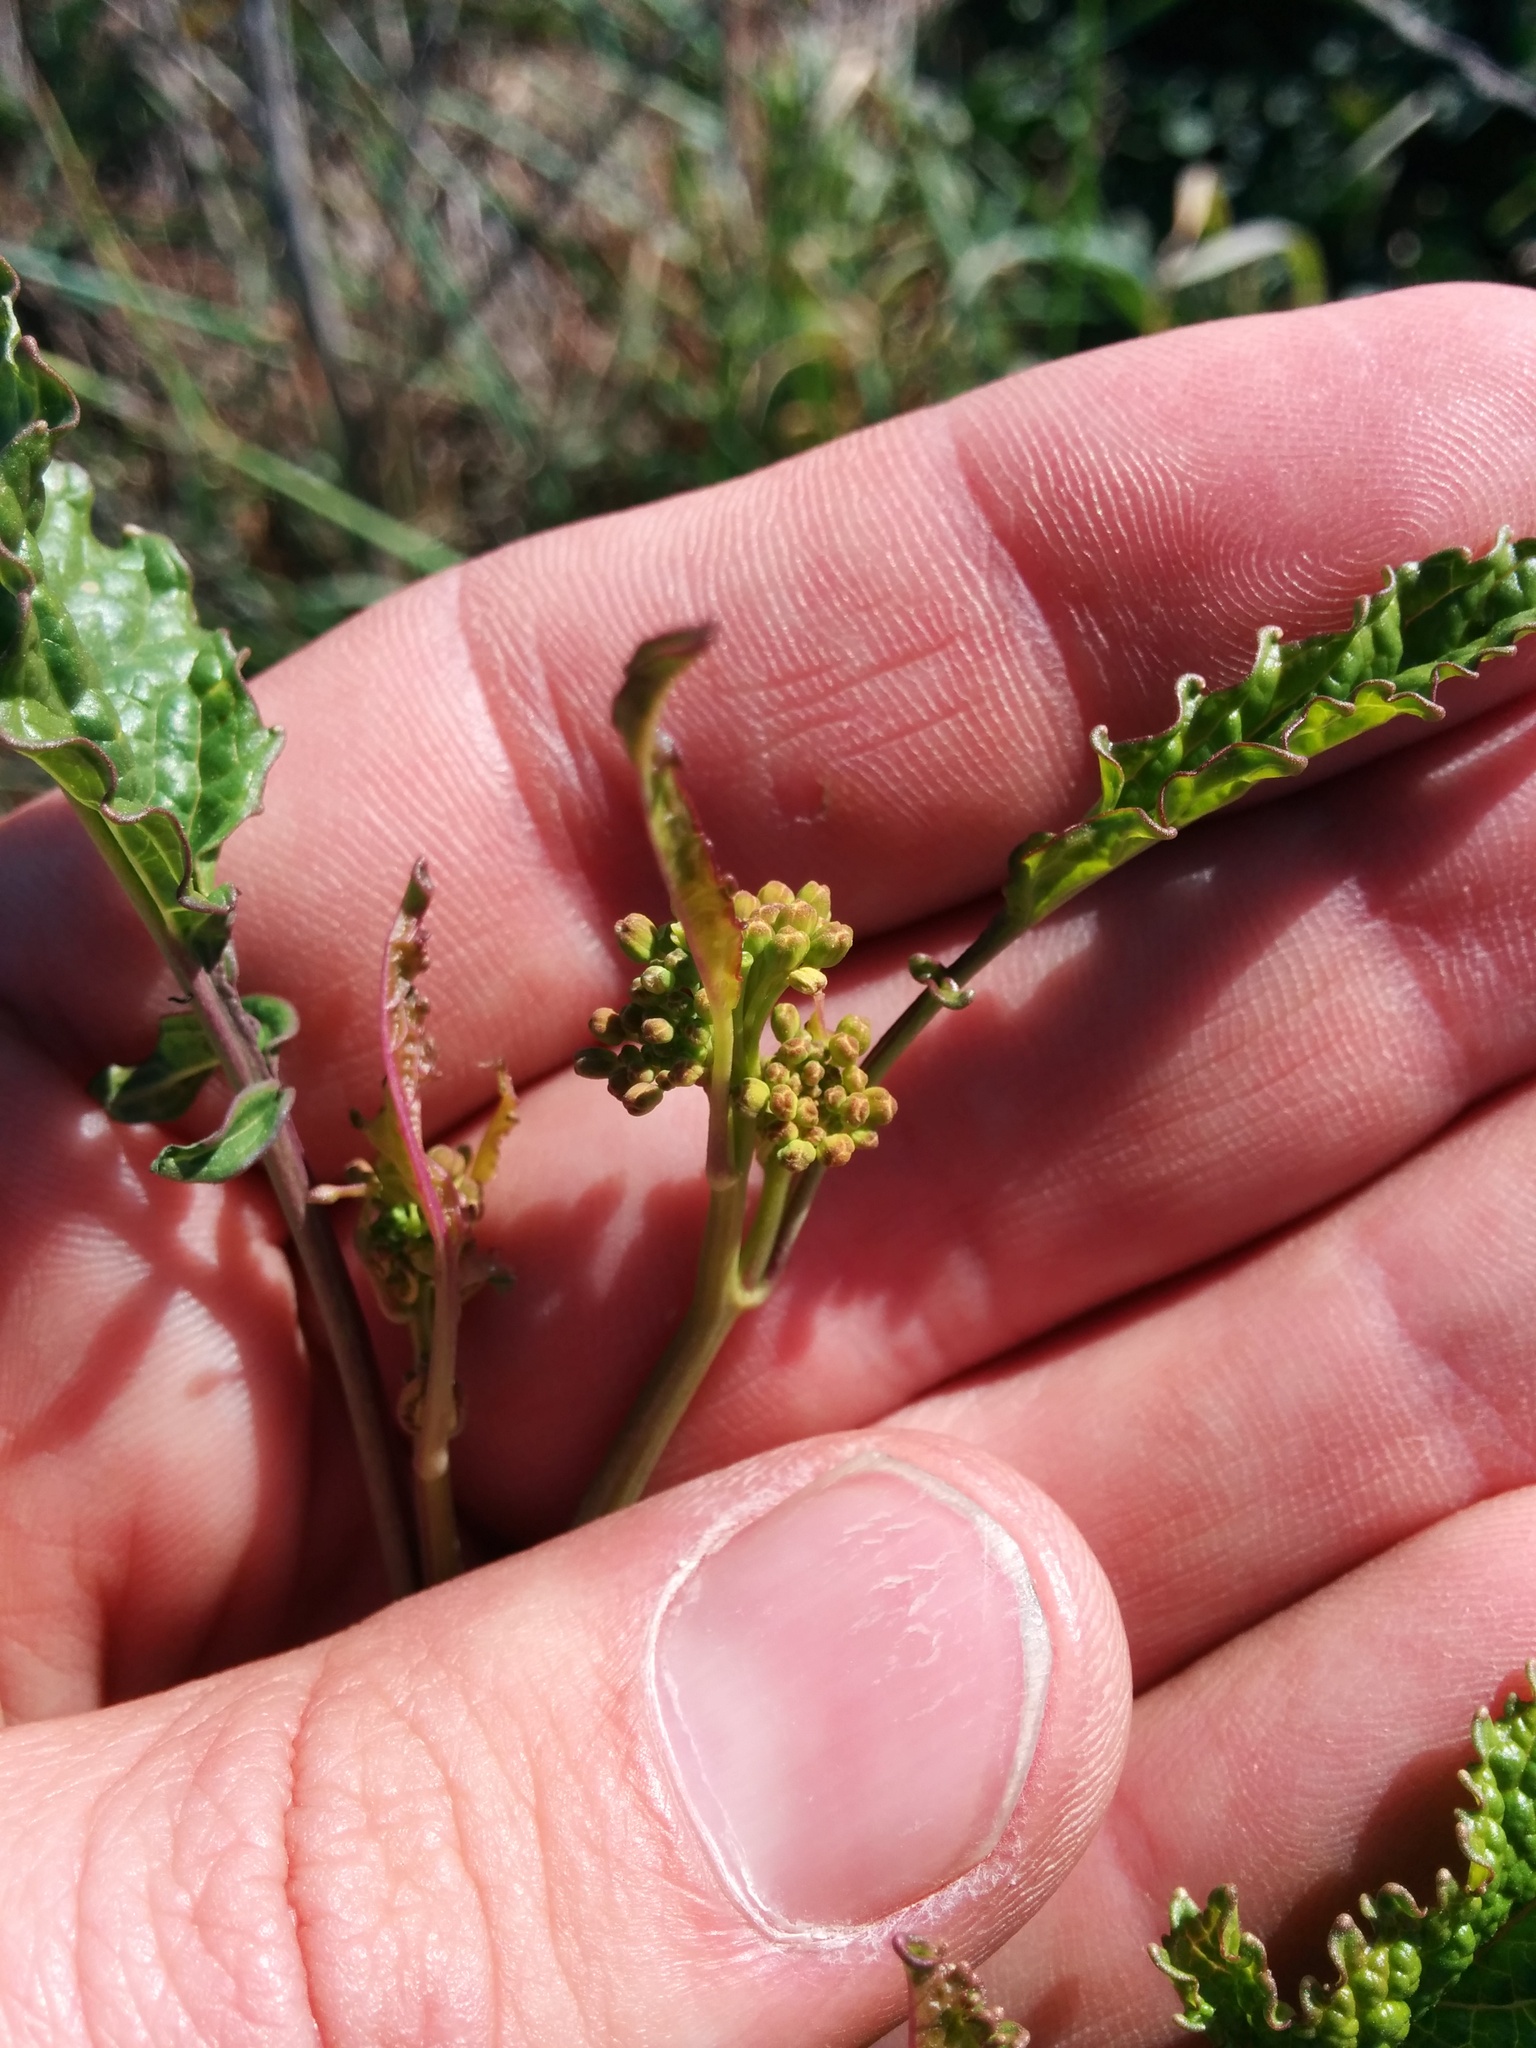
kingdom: Plantae
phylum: Tracheophyta
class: Magnoliopsida
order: Brassicales
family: Brassicaceae
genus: Brassica
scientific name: Brassica nigra
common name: Black mustard
